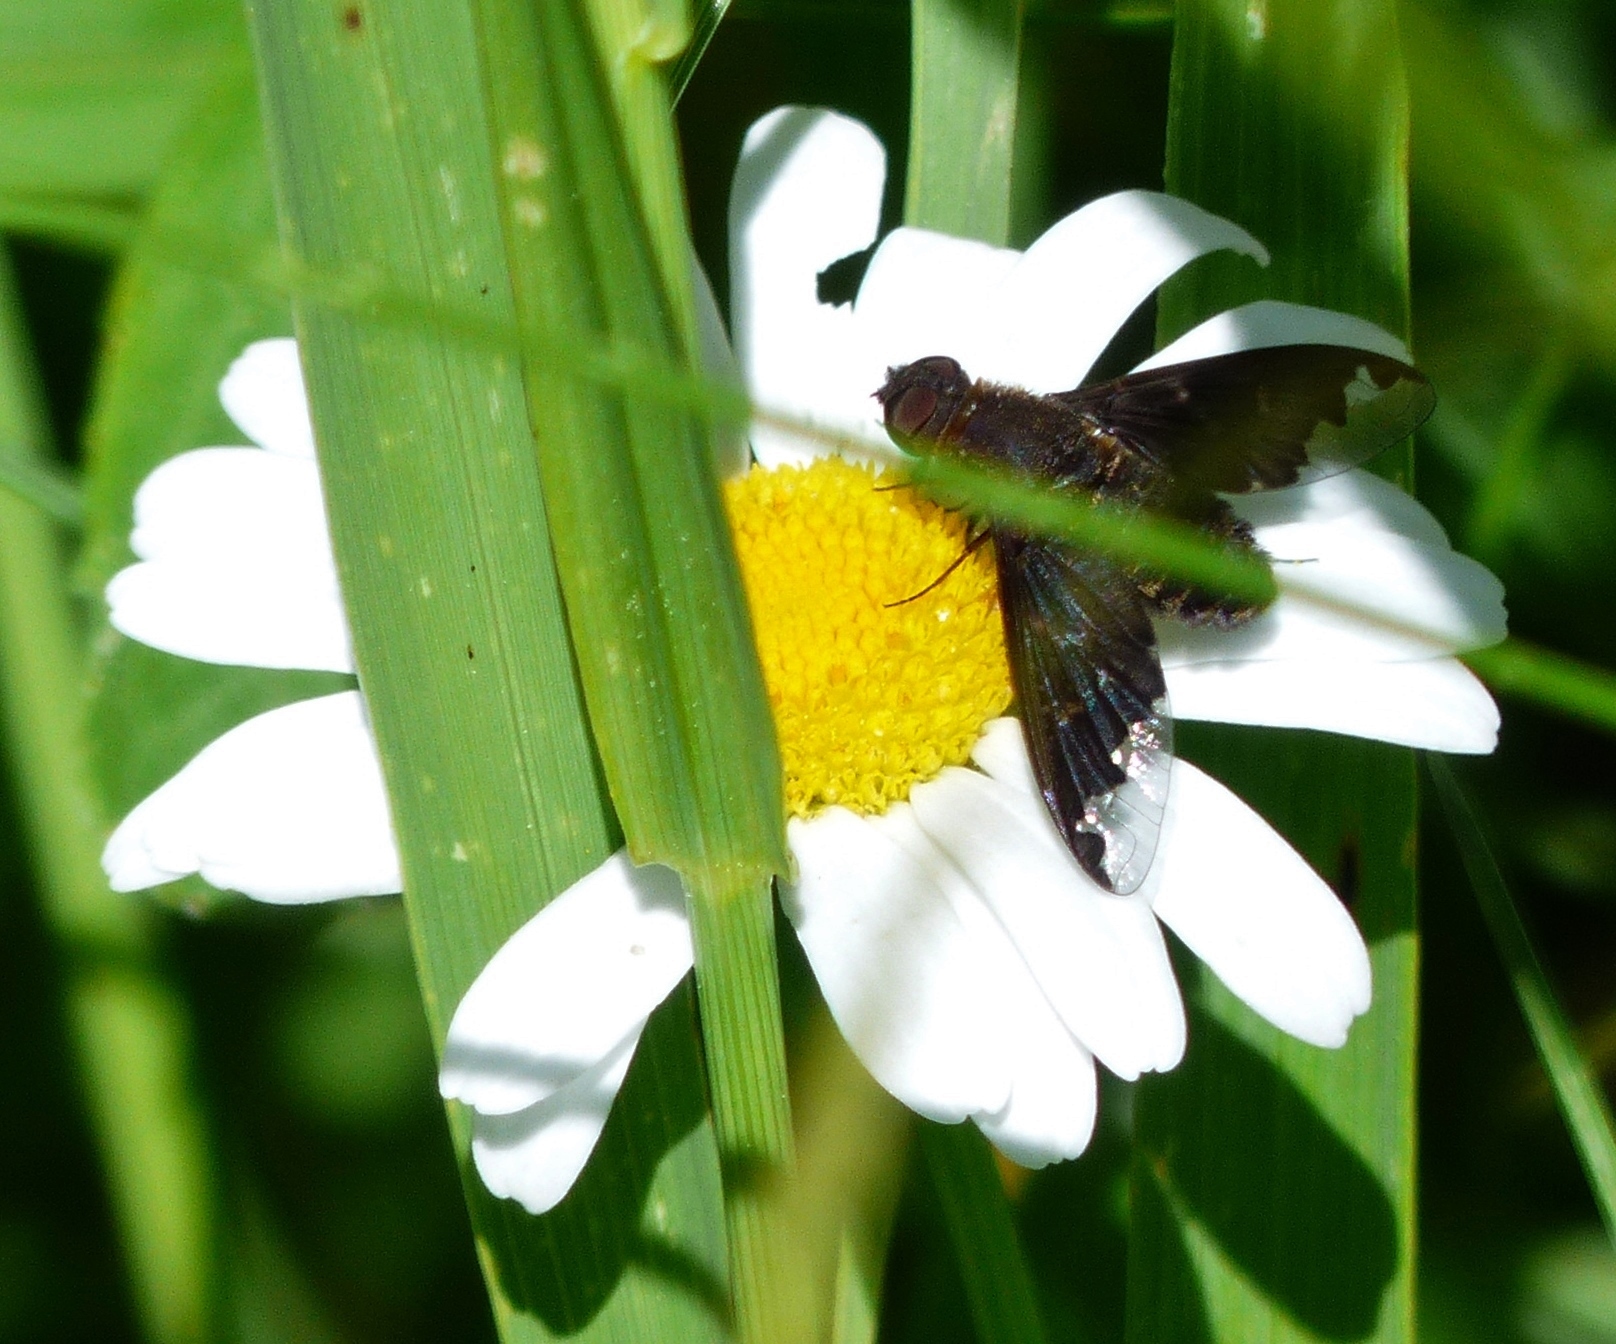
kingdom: Animalia
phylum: Arthropoda
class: Insecta
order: Diptera
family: Bombyliidae
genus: Hemipenthes
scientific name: Hemipenthes sinuosus
